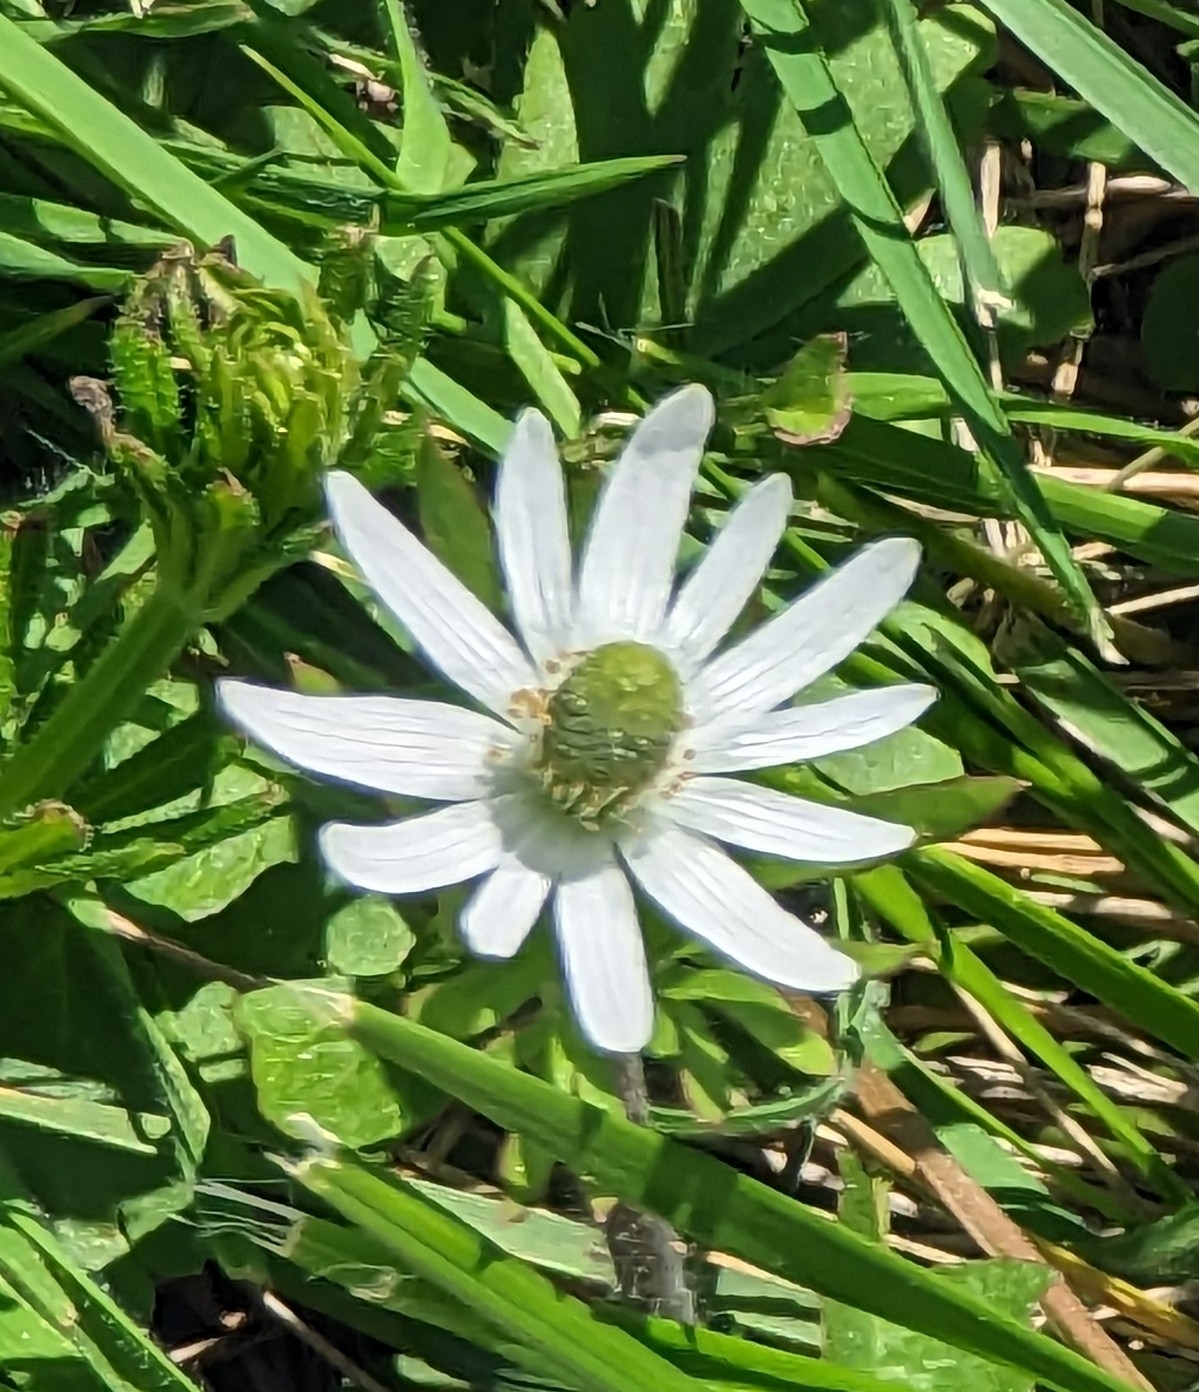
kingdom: Plantae
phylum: Tracheophyta
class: Magnoliopsida
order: Ranunculales
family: Ranunculaceae
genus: Anemone
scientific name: Anemone berlandieri
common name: Ten-petal anemone
